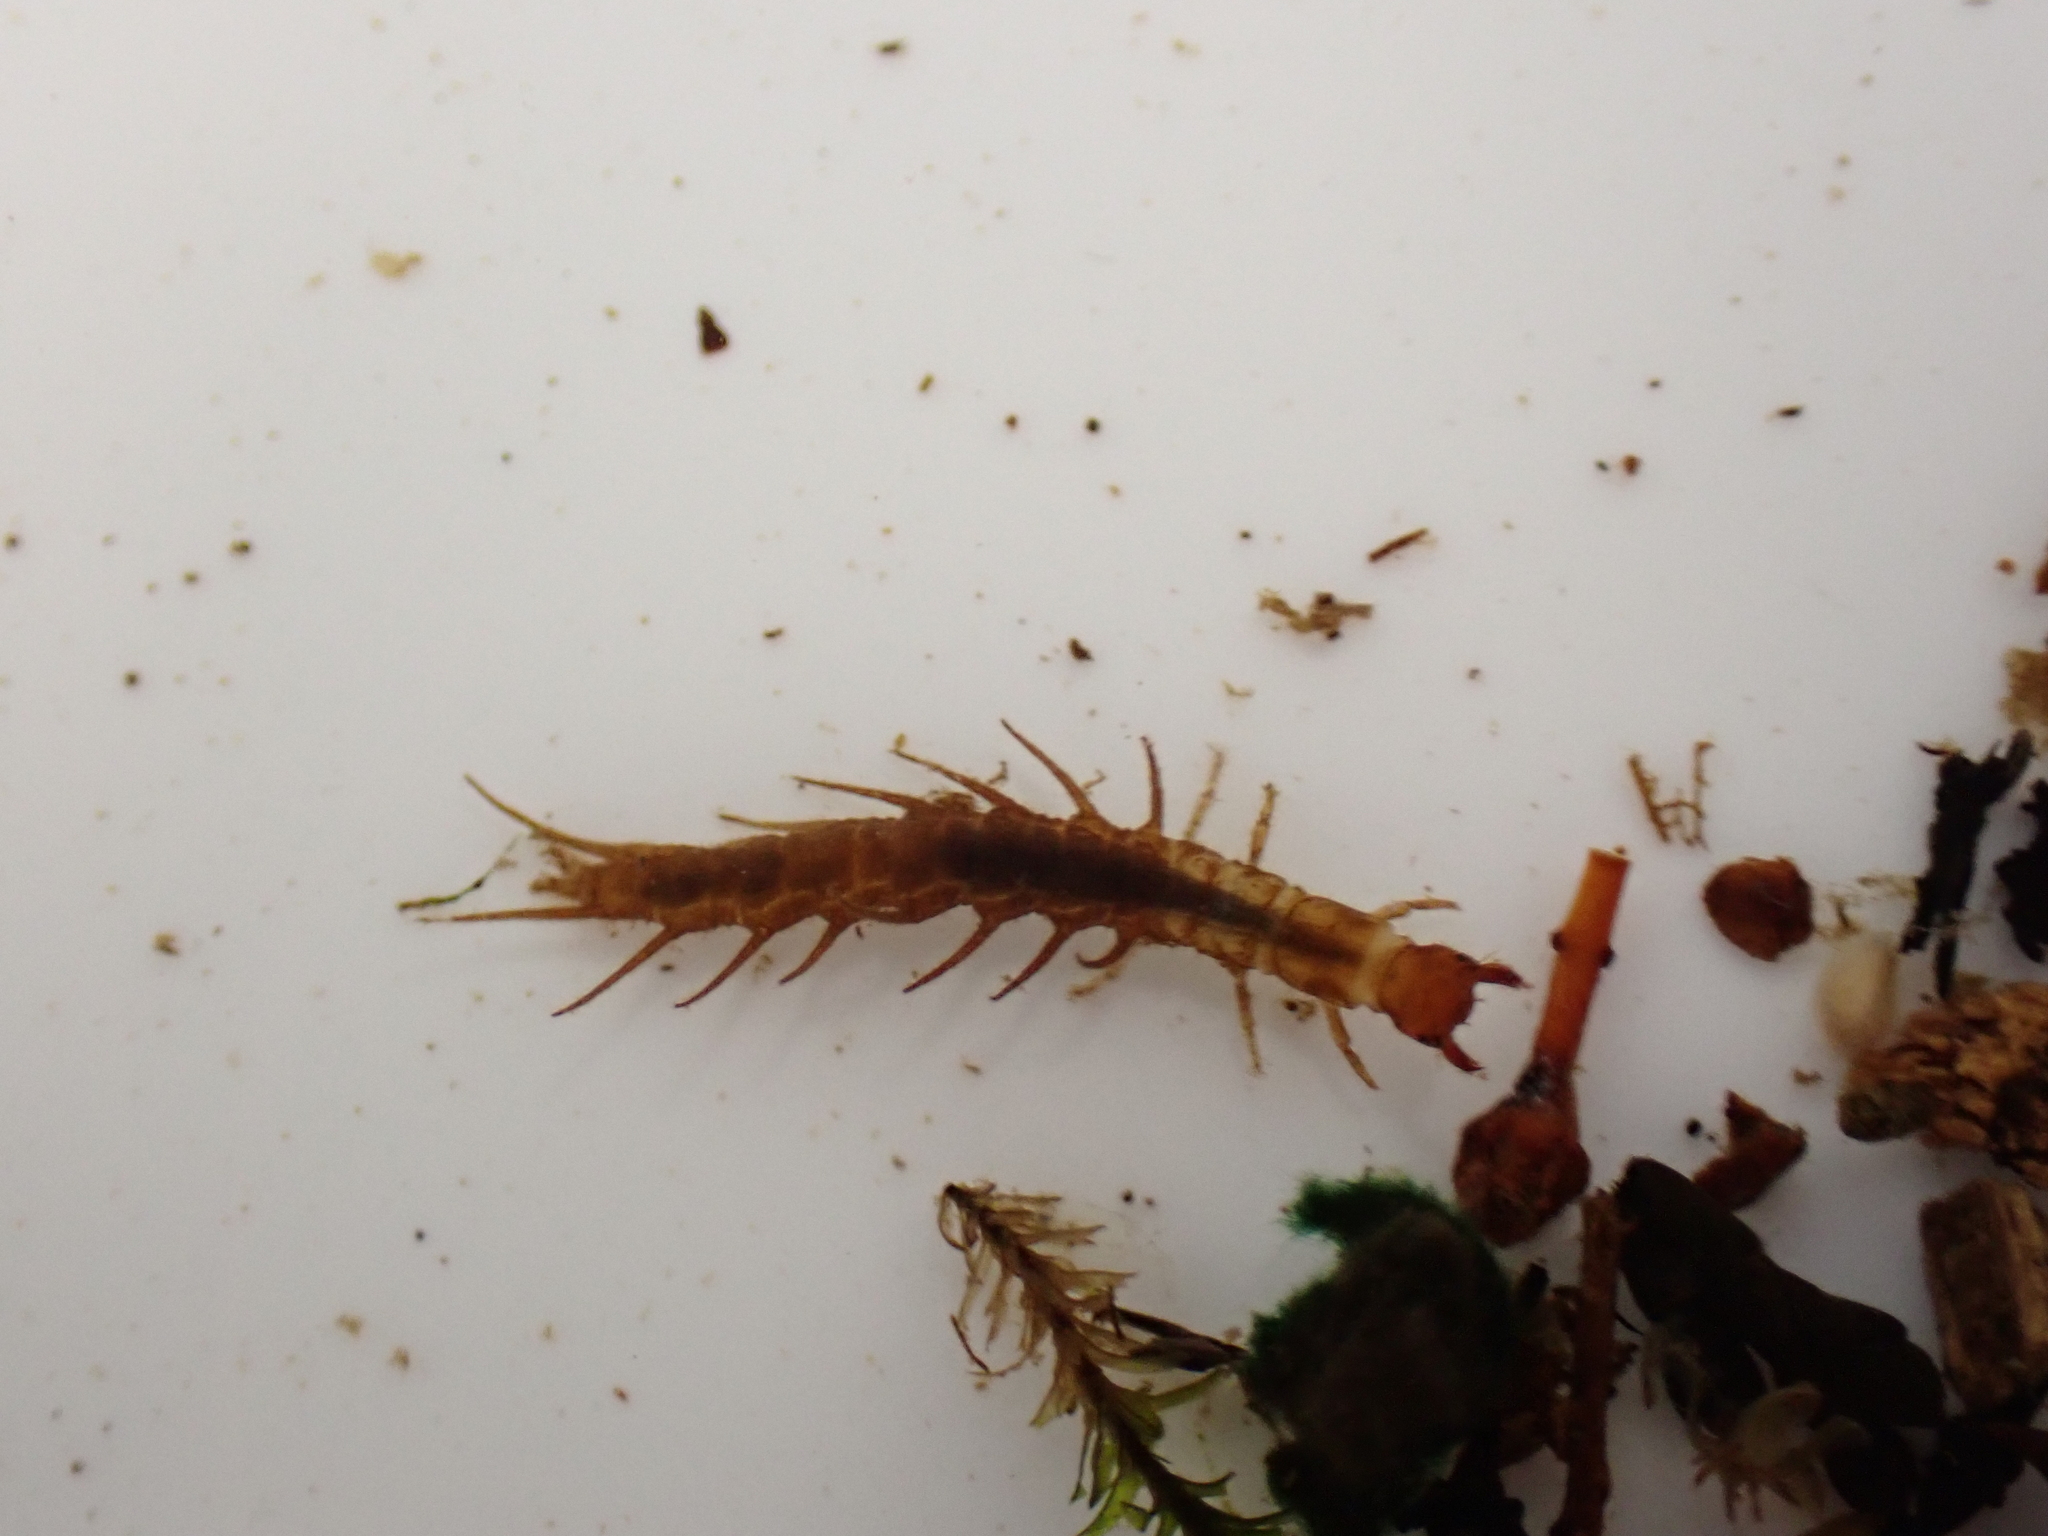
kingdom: Animalia
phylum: Arthropoda
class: Insecta
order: Megaloptera
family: Corydalidae
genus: Archichauliodes
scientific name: Archichauliodes diversus
